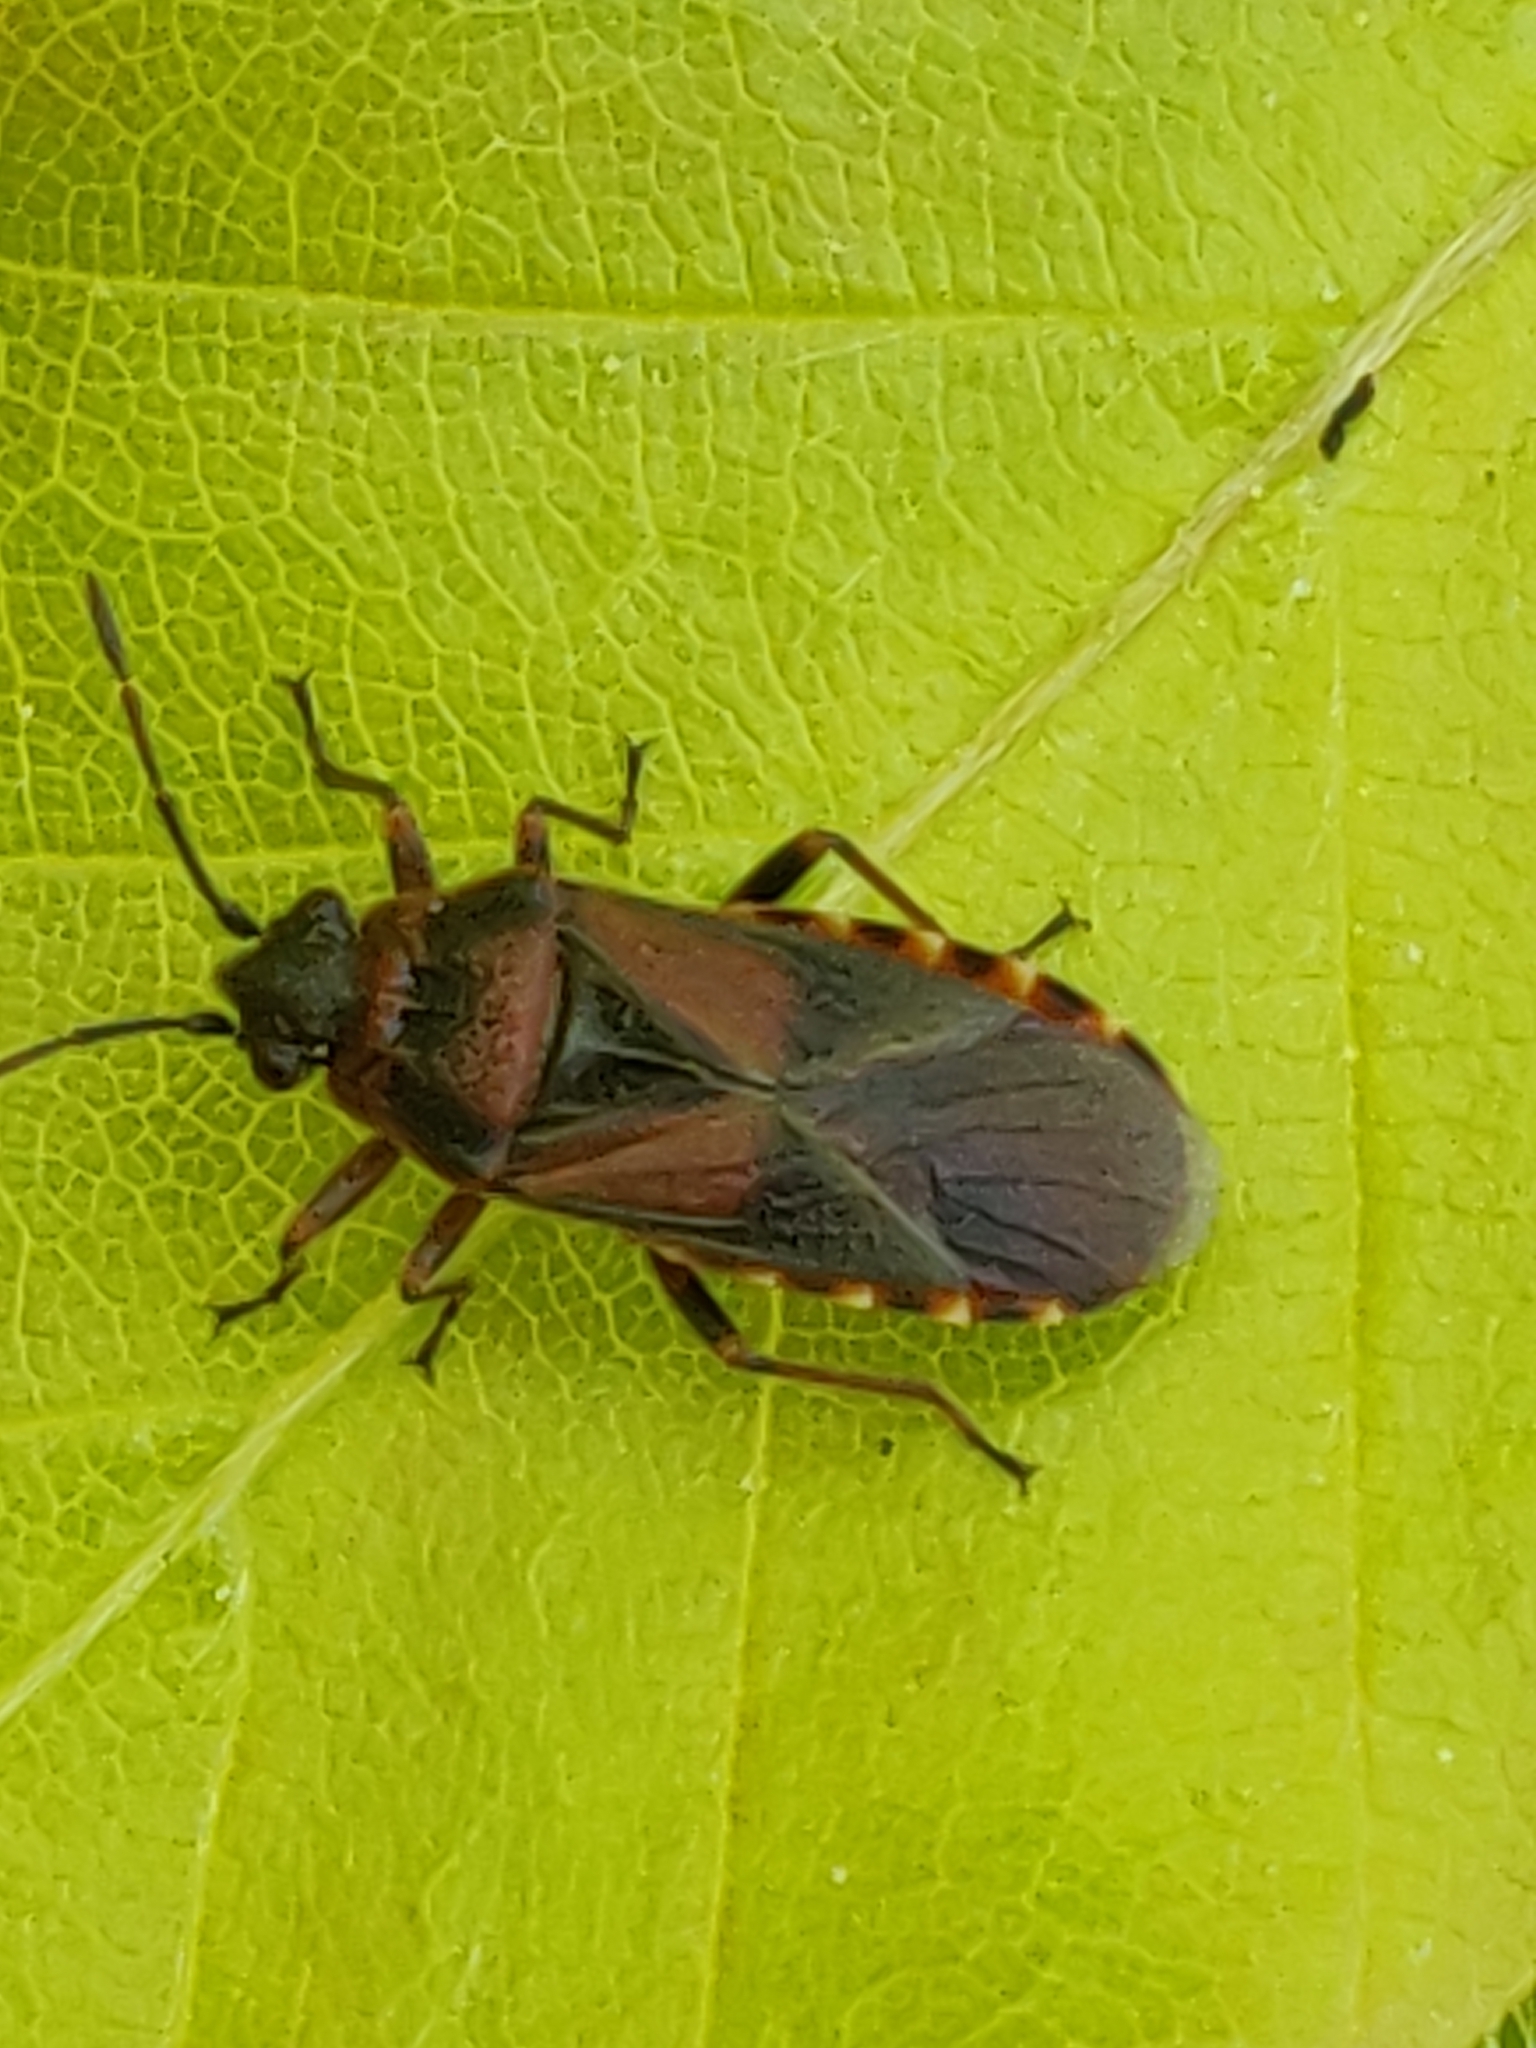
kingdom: Animalia
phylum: Arthropoda
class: Insecta
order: Hemiptera
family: Lygaeidae
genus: Arocatus
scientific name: Arocatus melanocephalus
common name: Lygaeid bug
